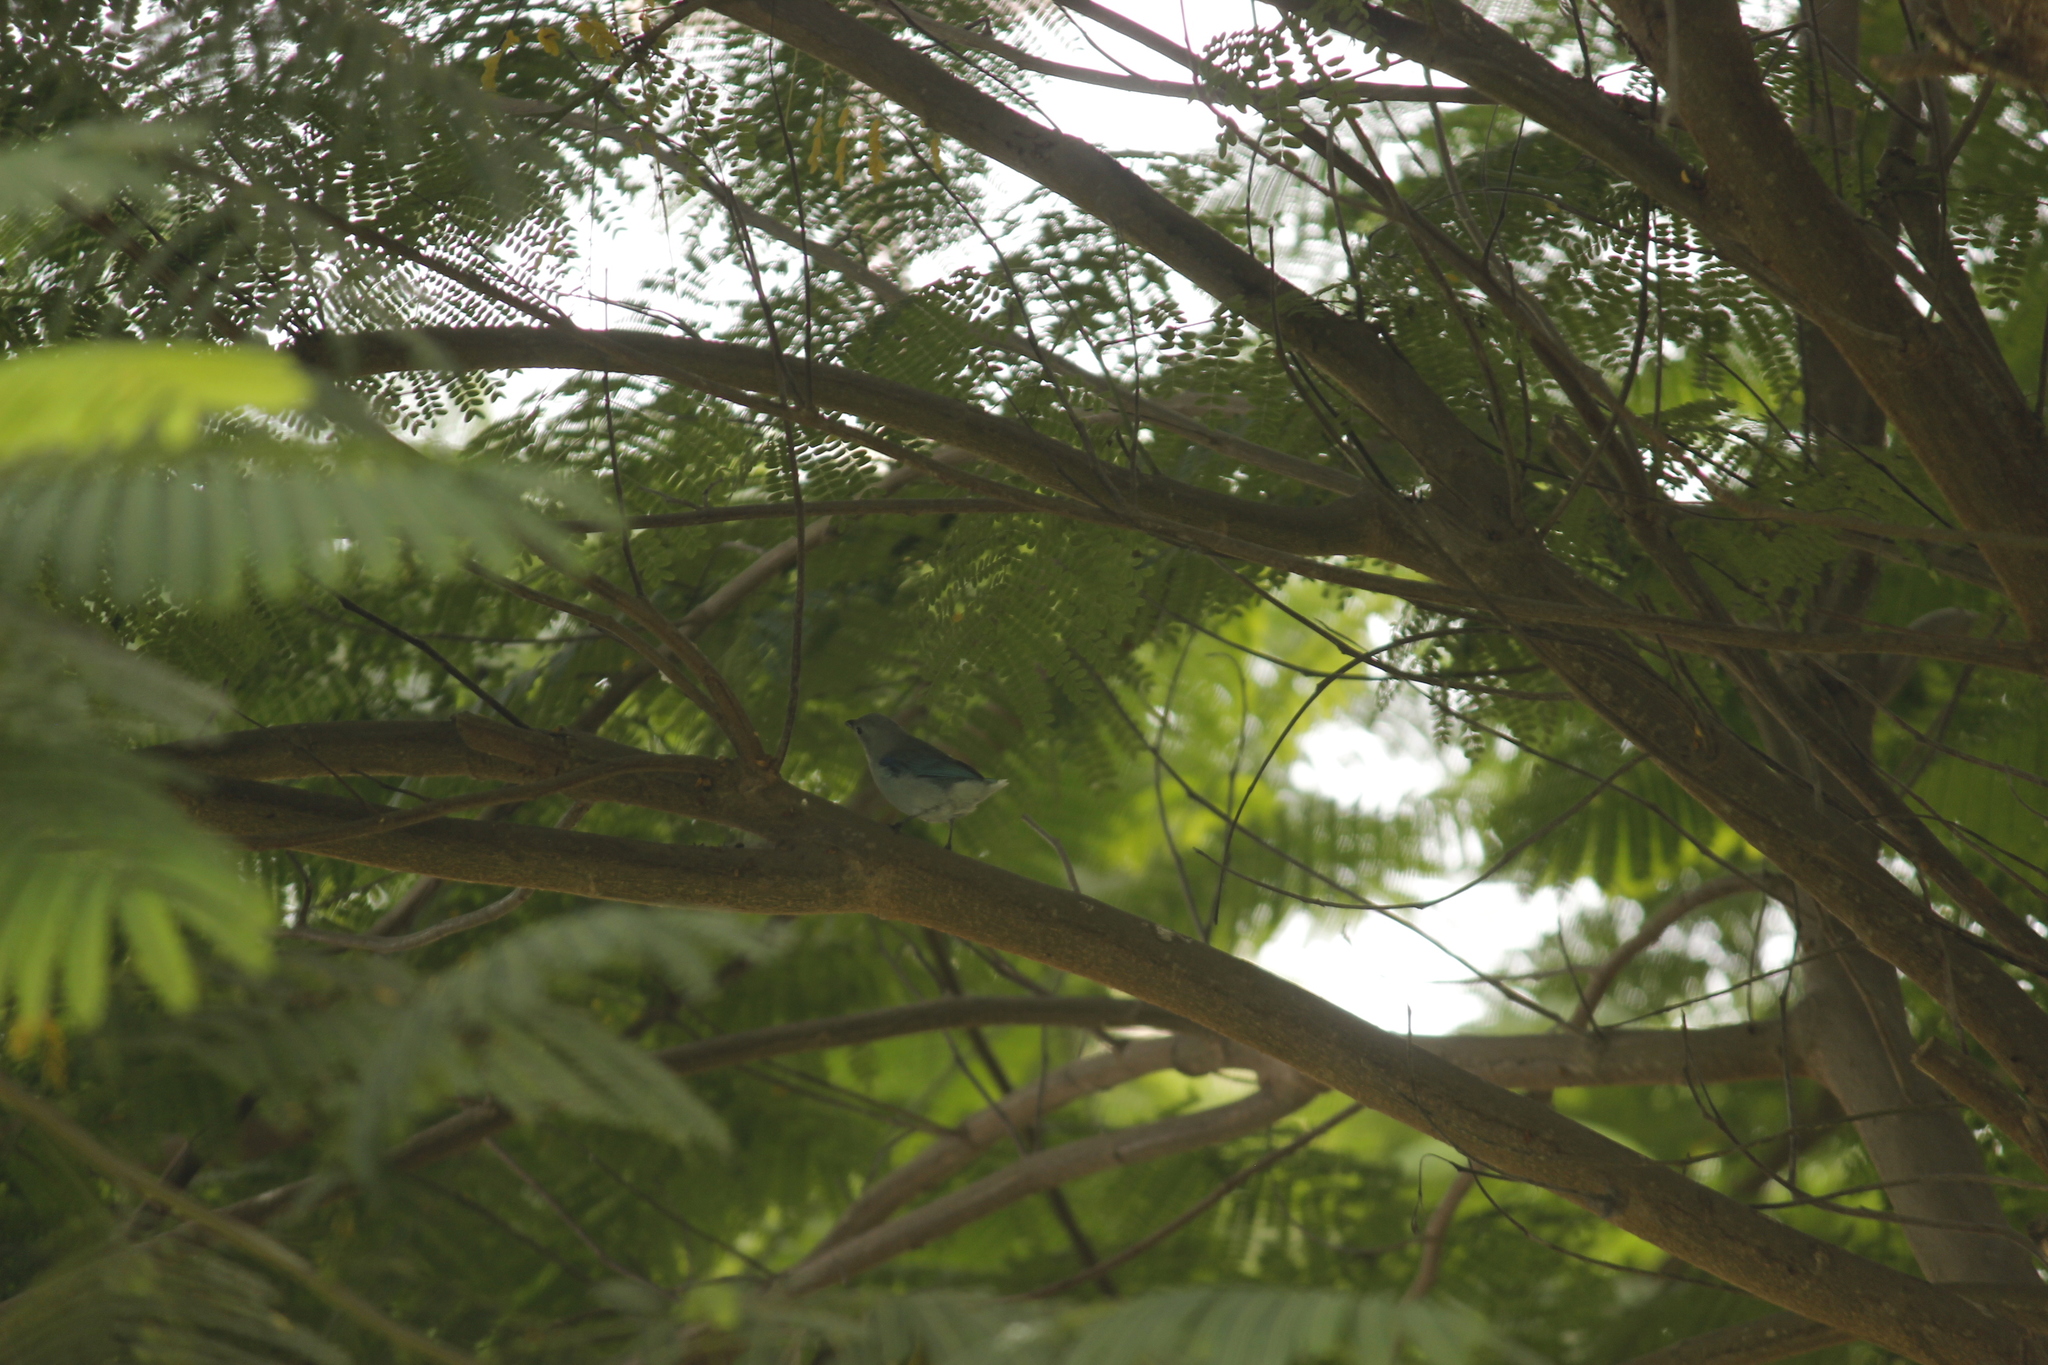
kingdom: Animalia
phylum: Chordata
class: Aves
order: Passeriformes
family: Thraupidae
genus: Thraupis
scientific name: Thraupis episcopus
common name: Blue-grey tanager
